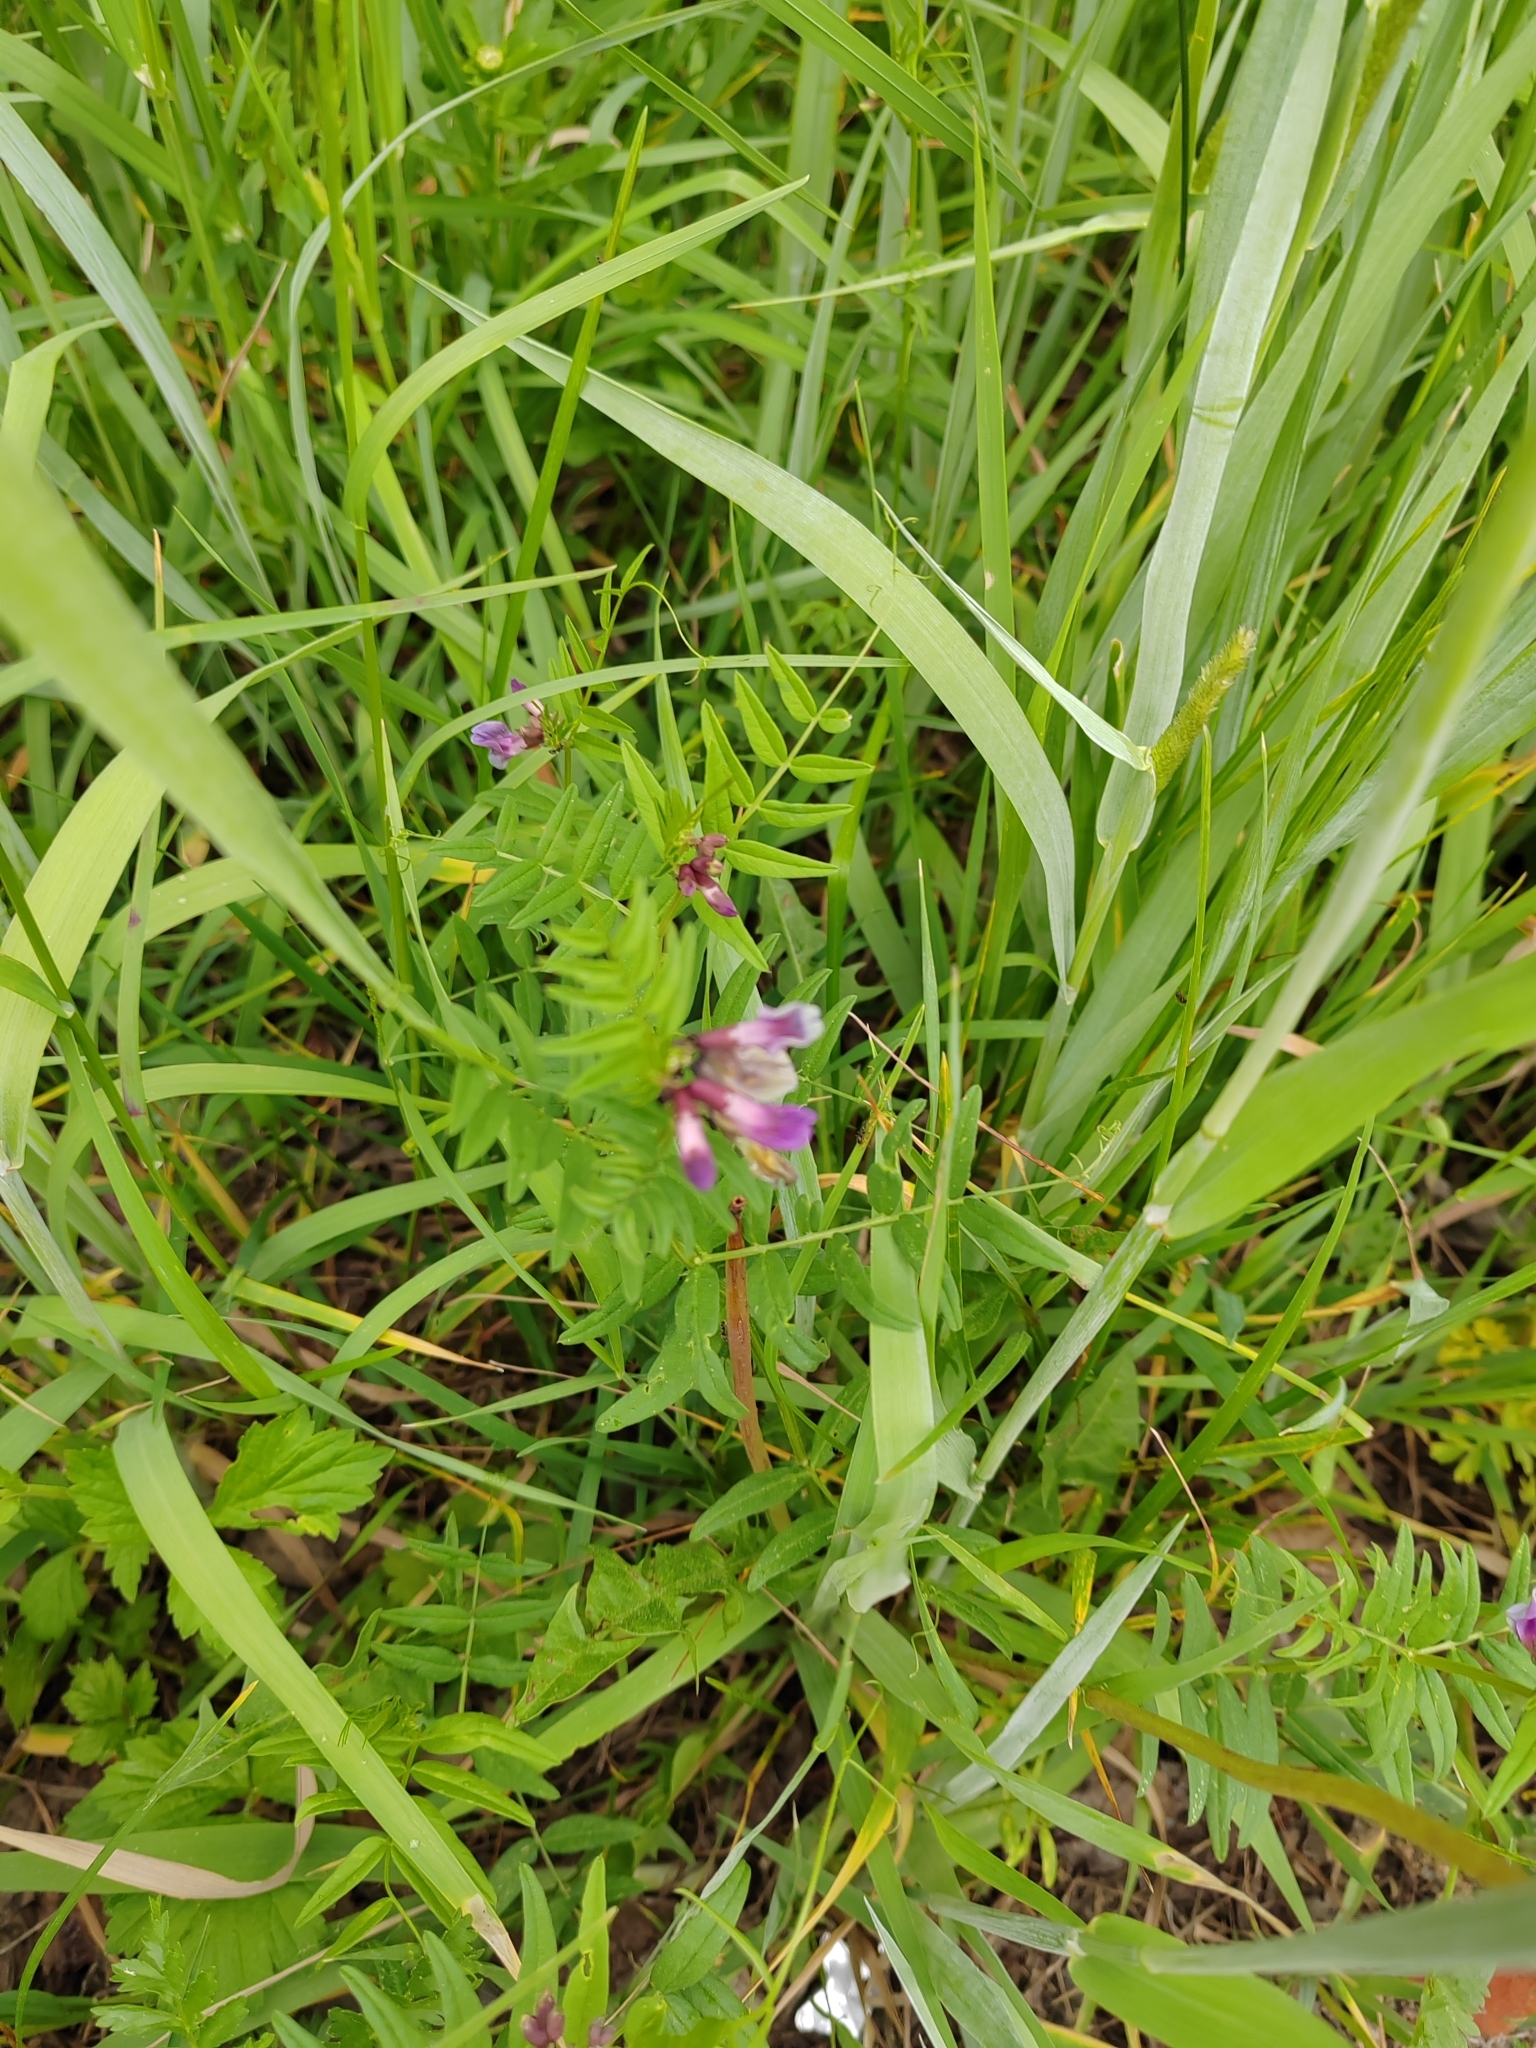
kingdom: Plantae
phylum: Tracheophyta
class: Magnoliopsida
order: Fabales
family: Fabaceae
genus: Vicia
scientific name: Vicia sepium
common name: Bush vetch
